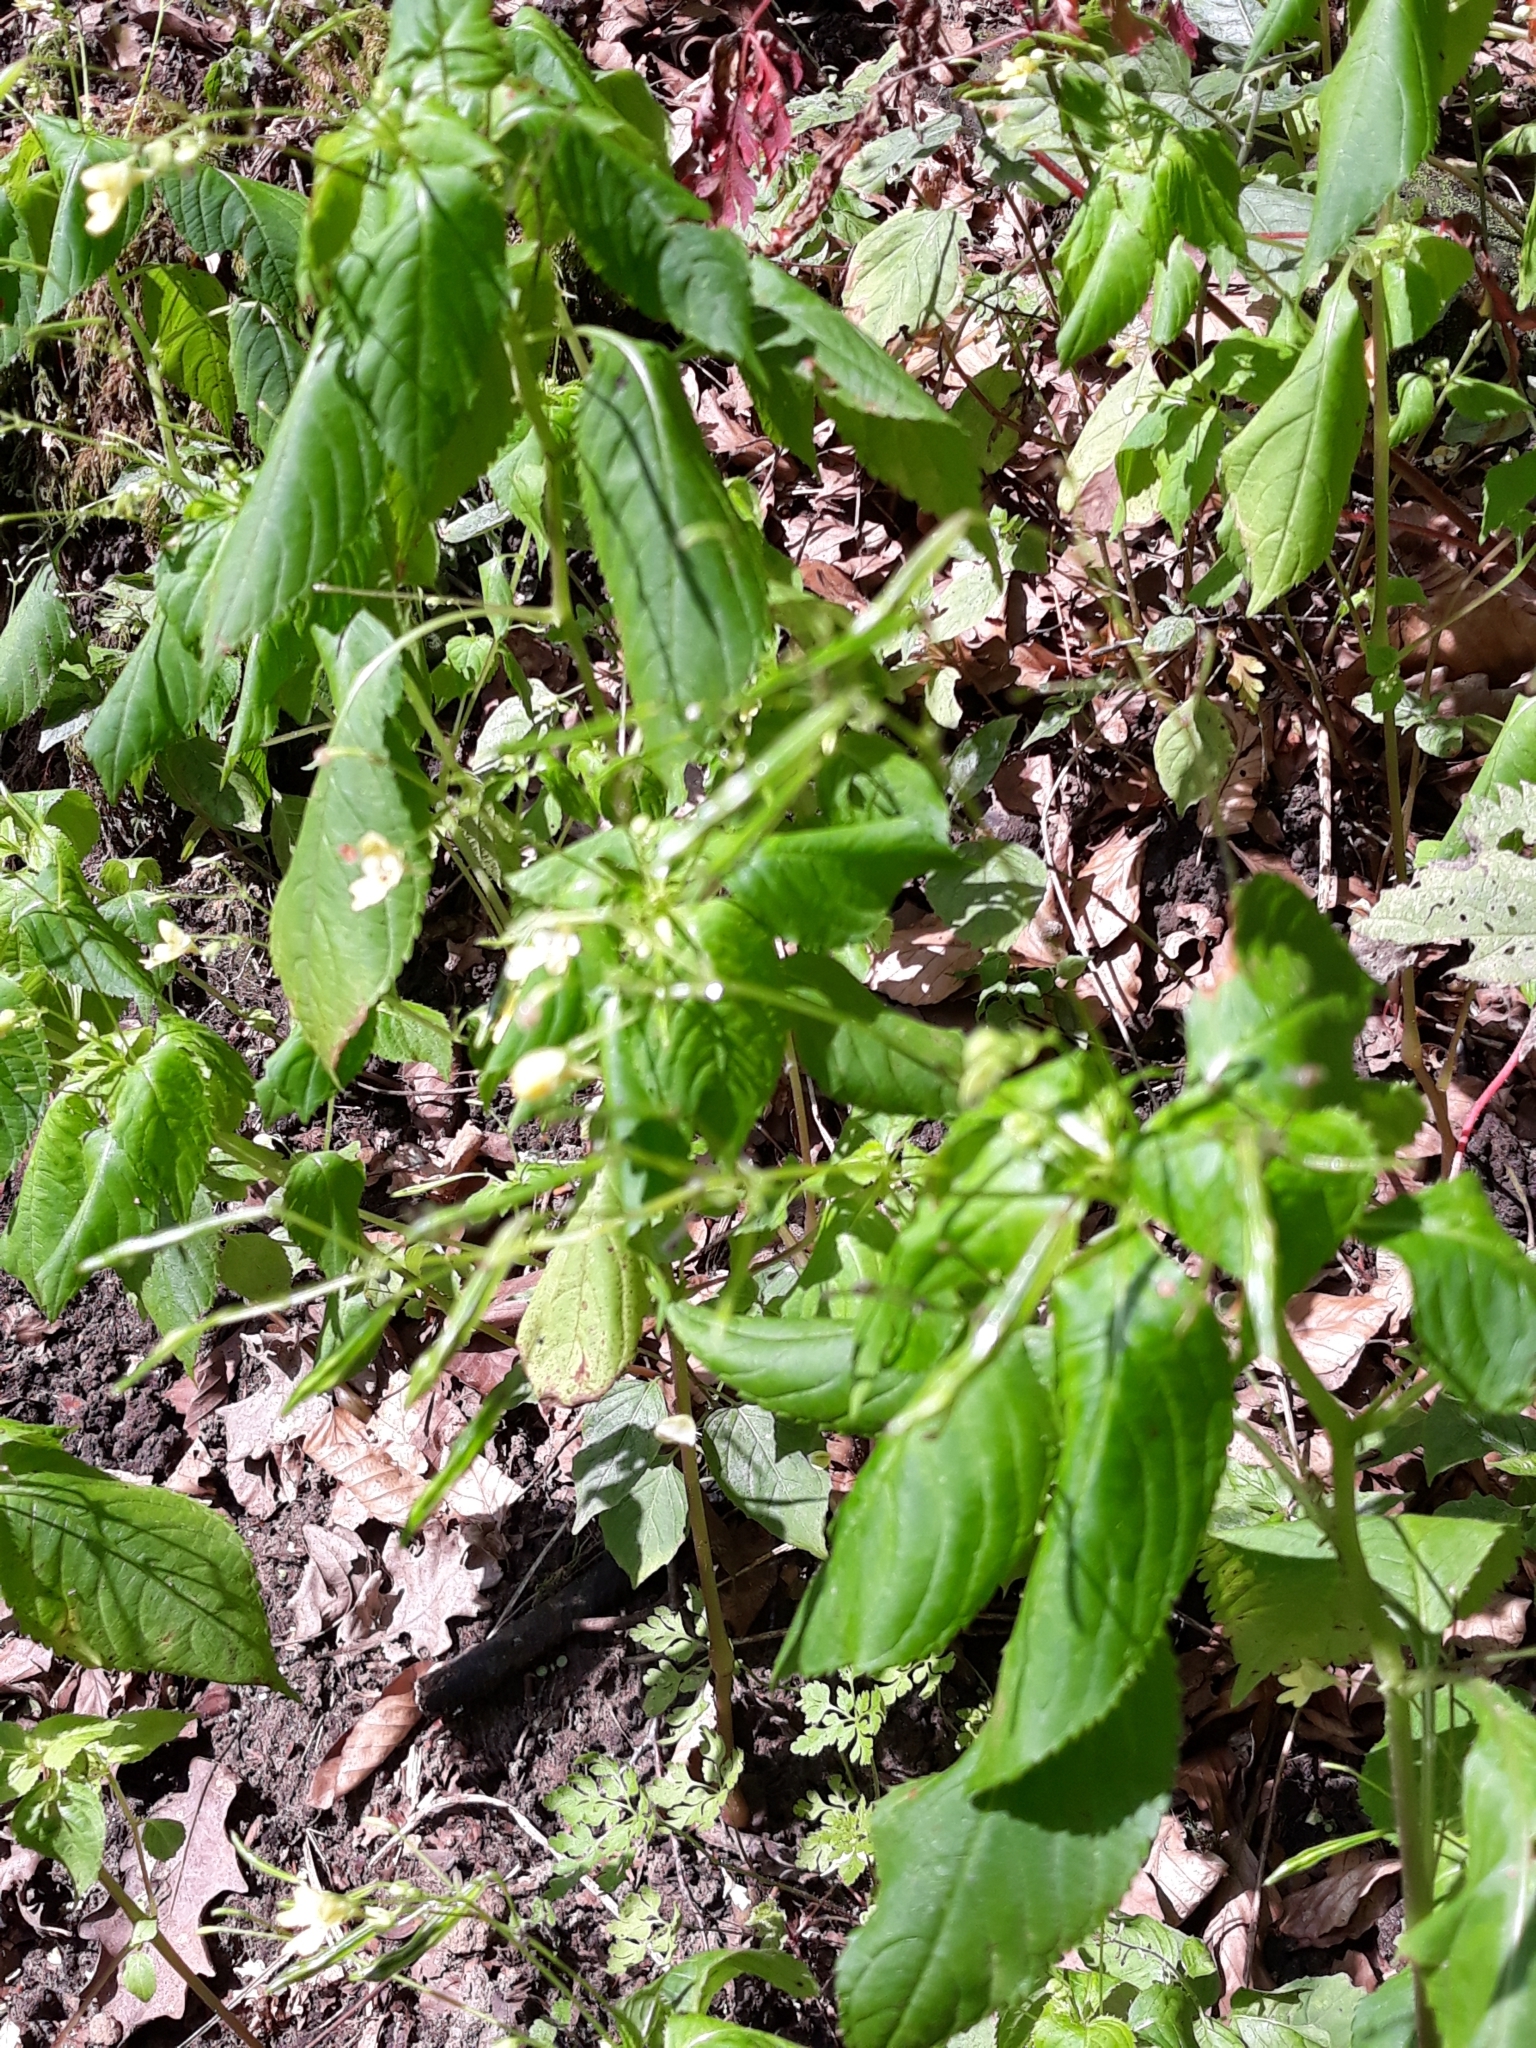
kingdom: Plantae
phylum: Tracheophyta
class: Magnoliopsida
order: Ericales
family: Balsaminaceae
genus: Impatiens
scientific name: Impatiens parviflora
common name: Small balsam
